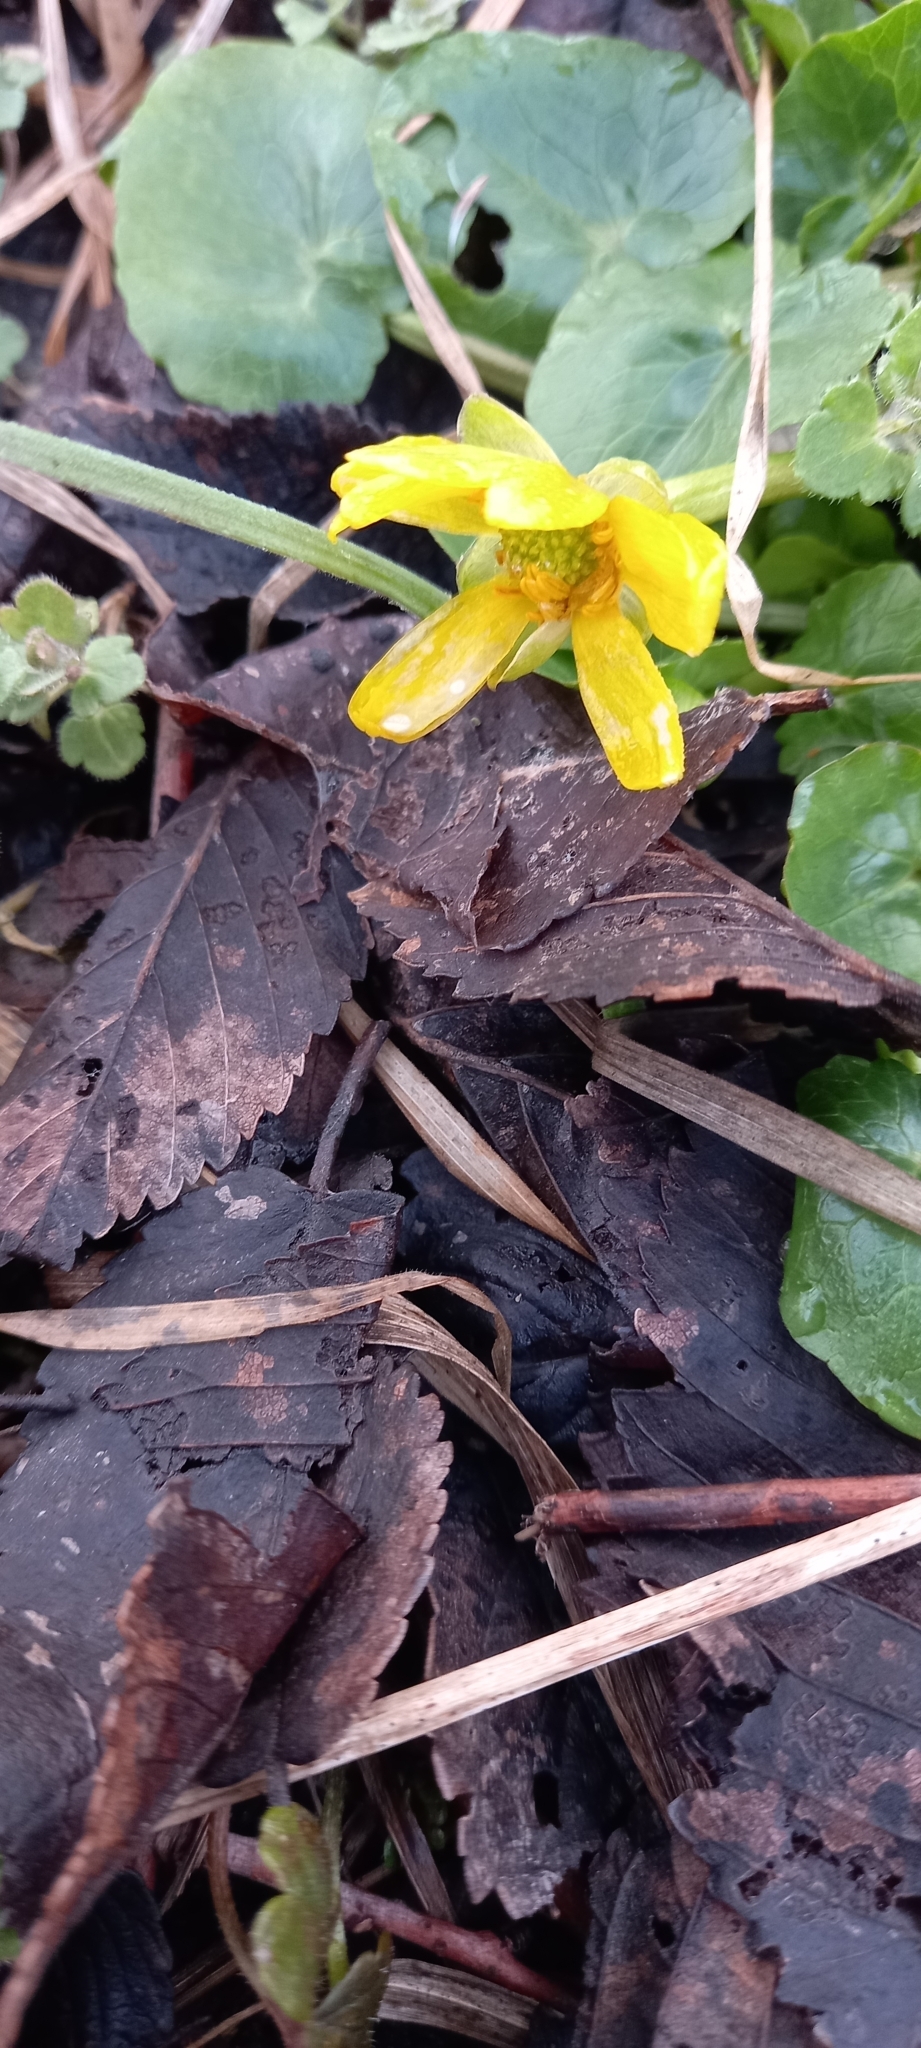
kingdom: Plantae
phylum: Tracheophyta
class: Magnoliopsida
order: Ranunculales
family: Ranunculaceae
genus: Ficaria
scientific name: Ficaria verna
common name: Lesser celandine
